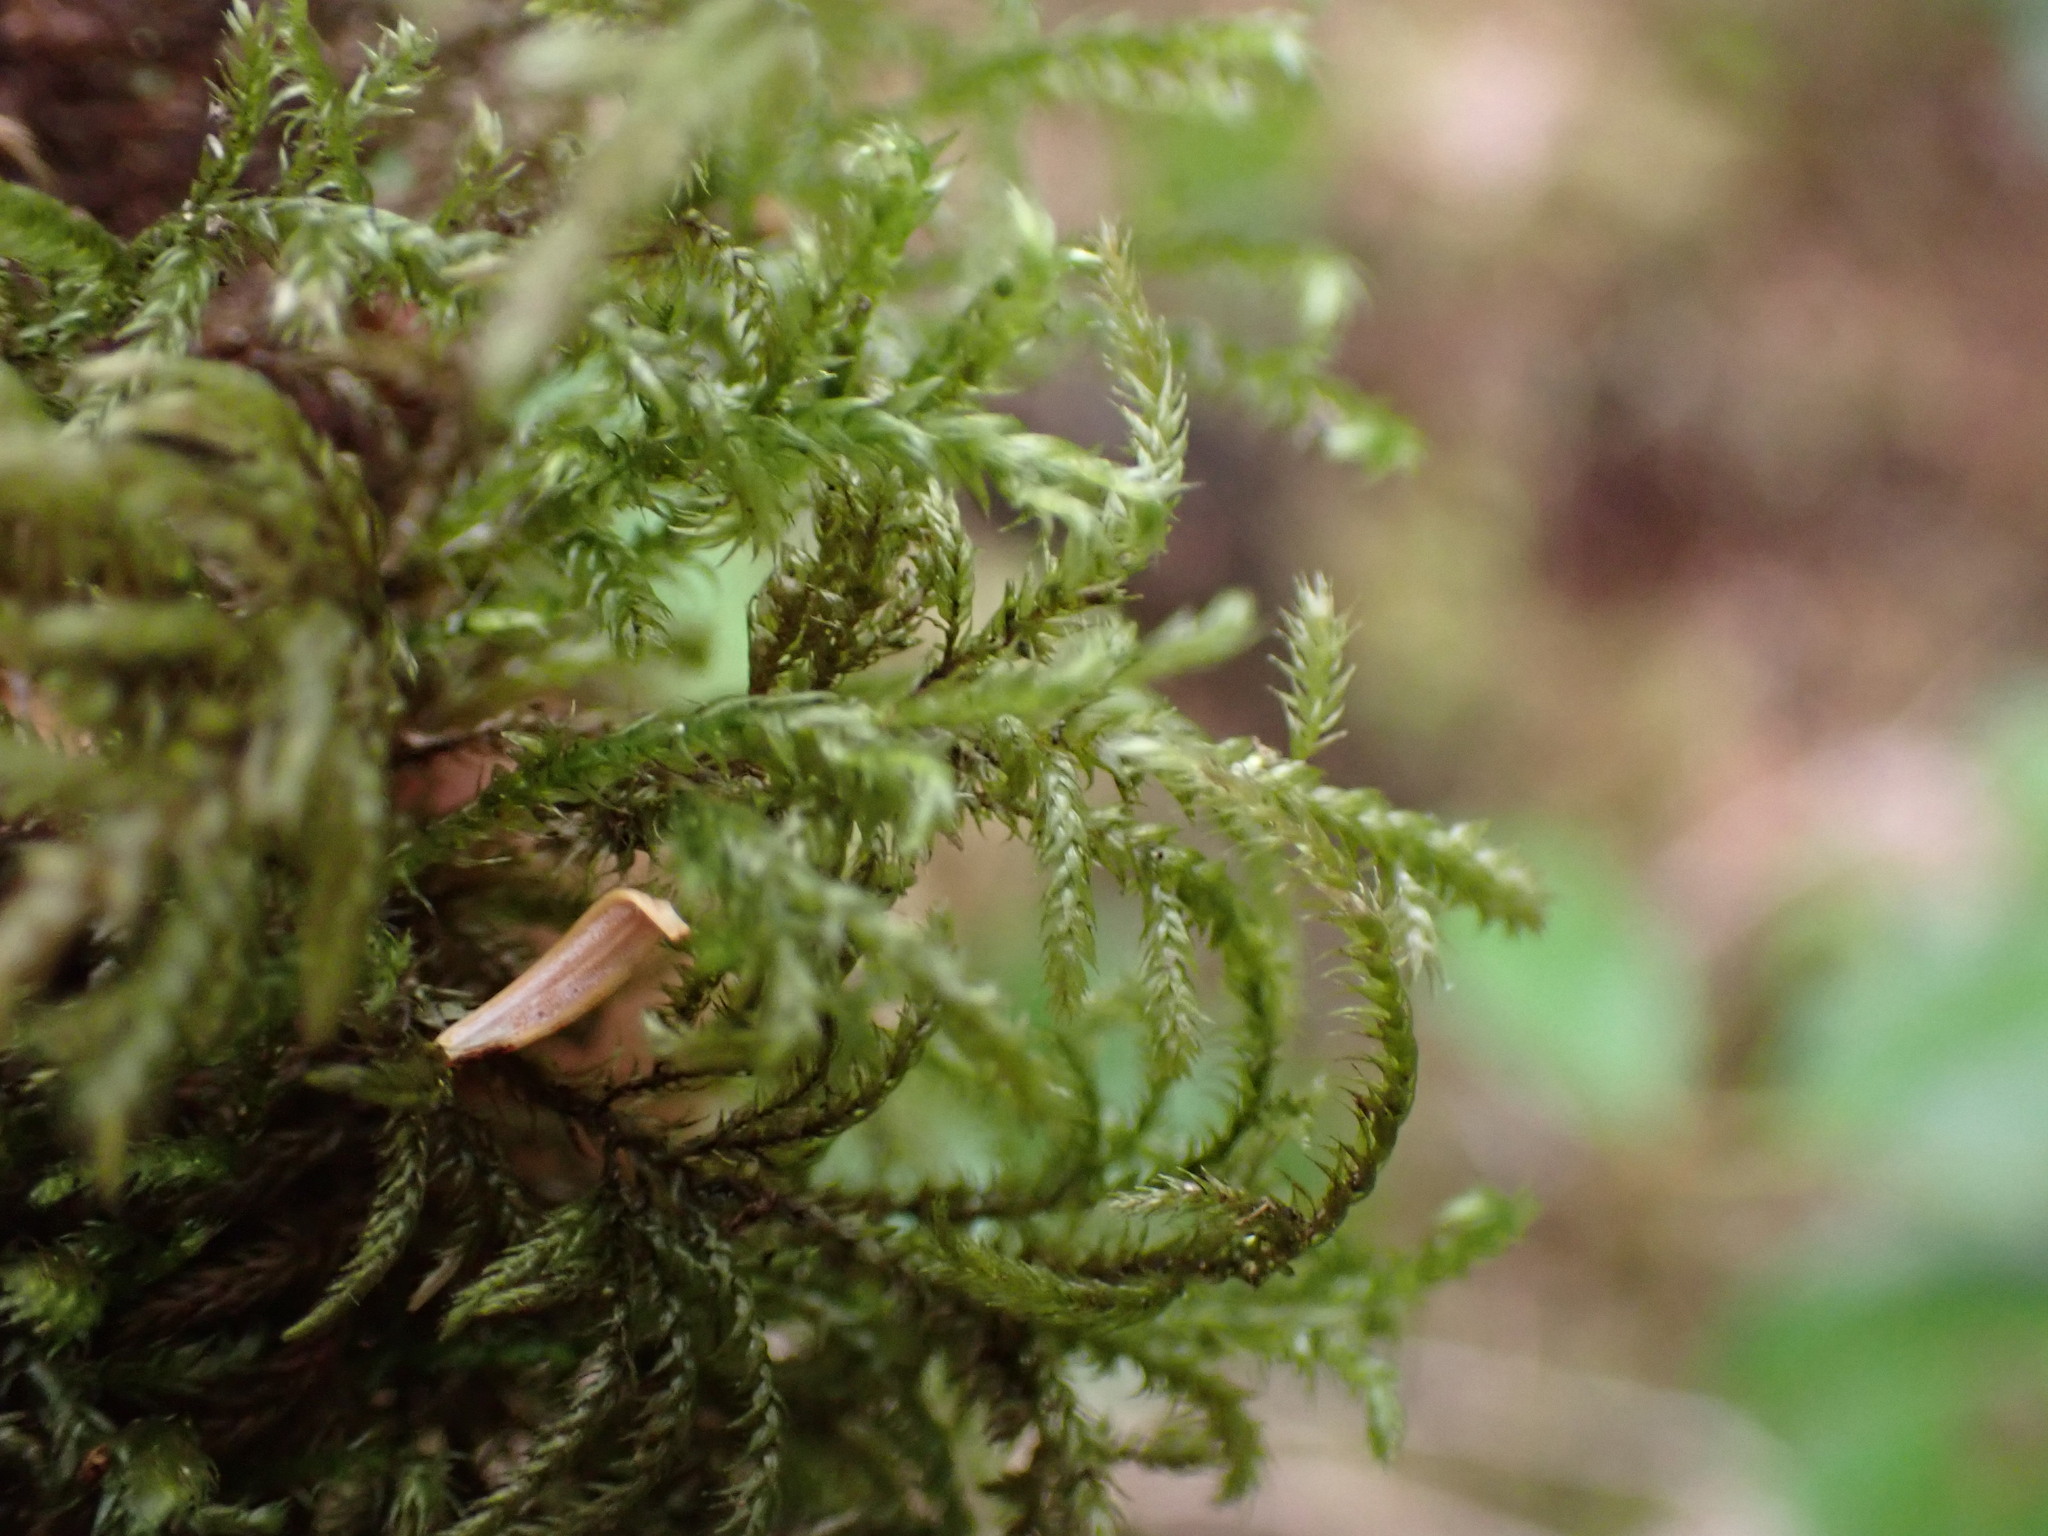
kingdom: Plantae
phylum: Bryophyta
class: Bryopsida
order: Hypnales
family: Brachytheciaceae
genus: Kindbergia
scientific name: Kindbergia oregana
